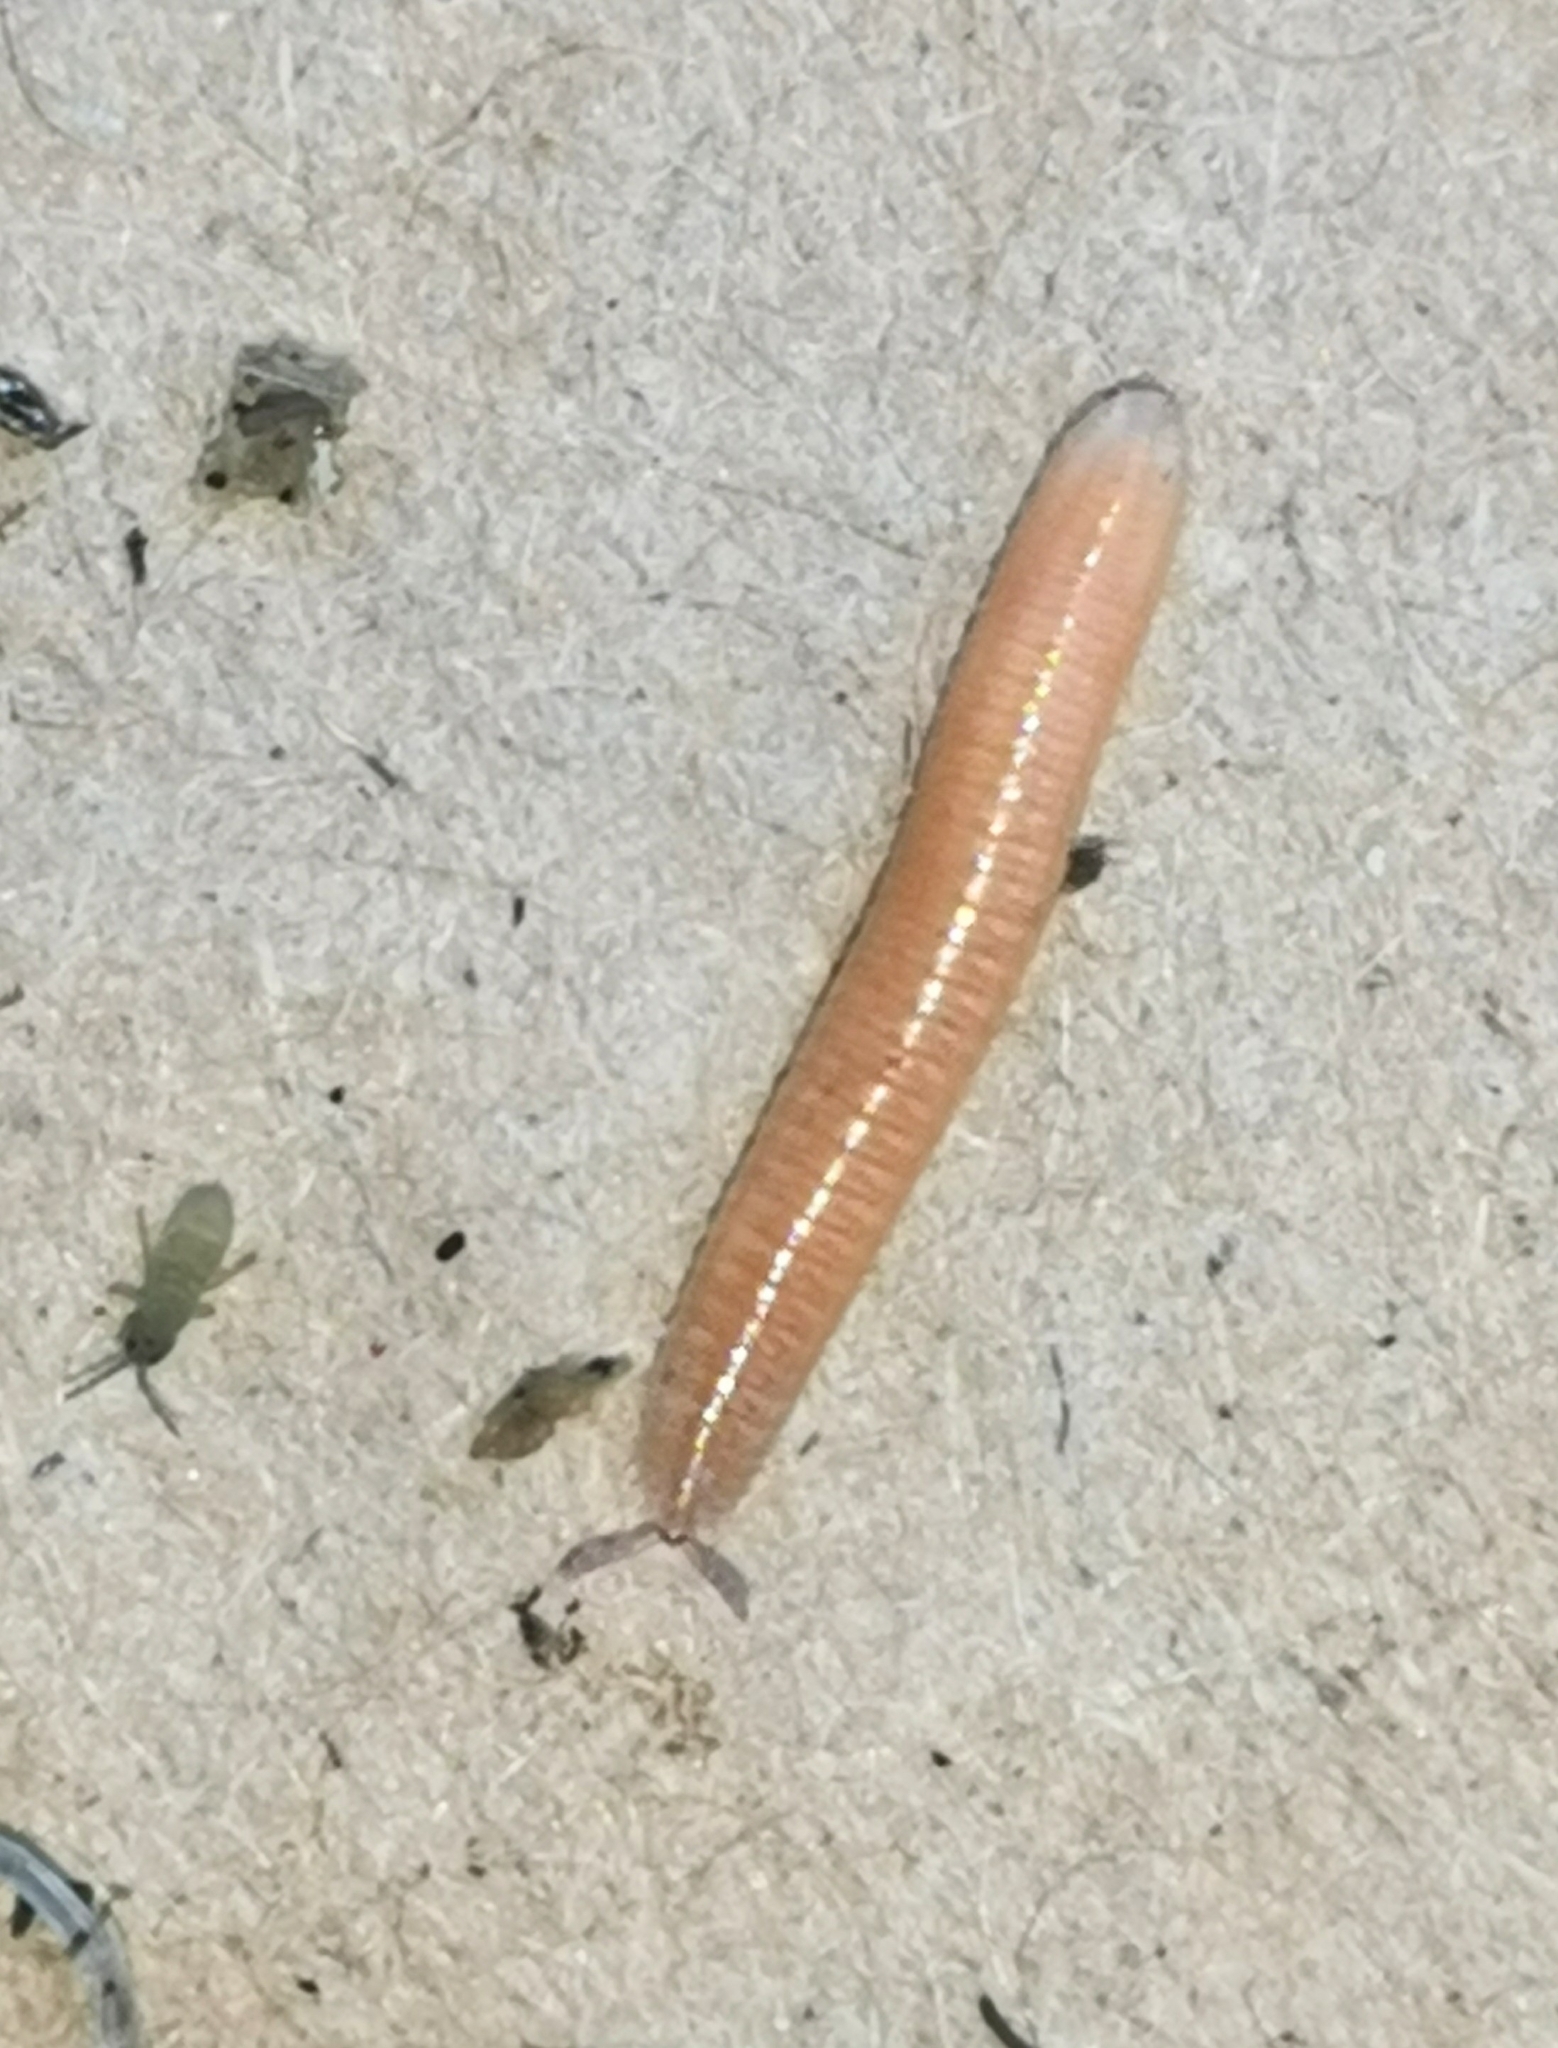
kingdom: Animalia
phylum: Arthropoda
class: Diplopoda
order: Polyzoniida
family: Polyzoniidae
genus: Polyzonium
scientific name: Polyzonium germanicum
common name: Boring millipede
